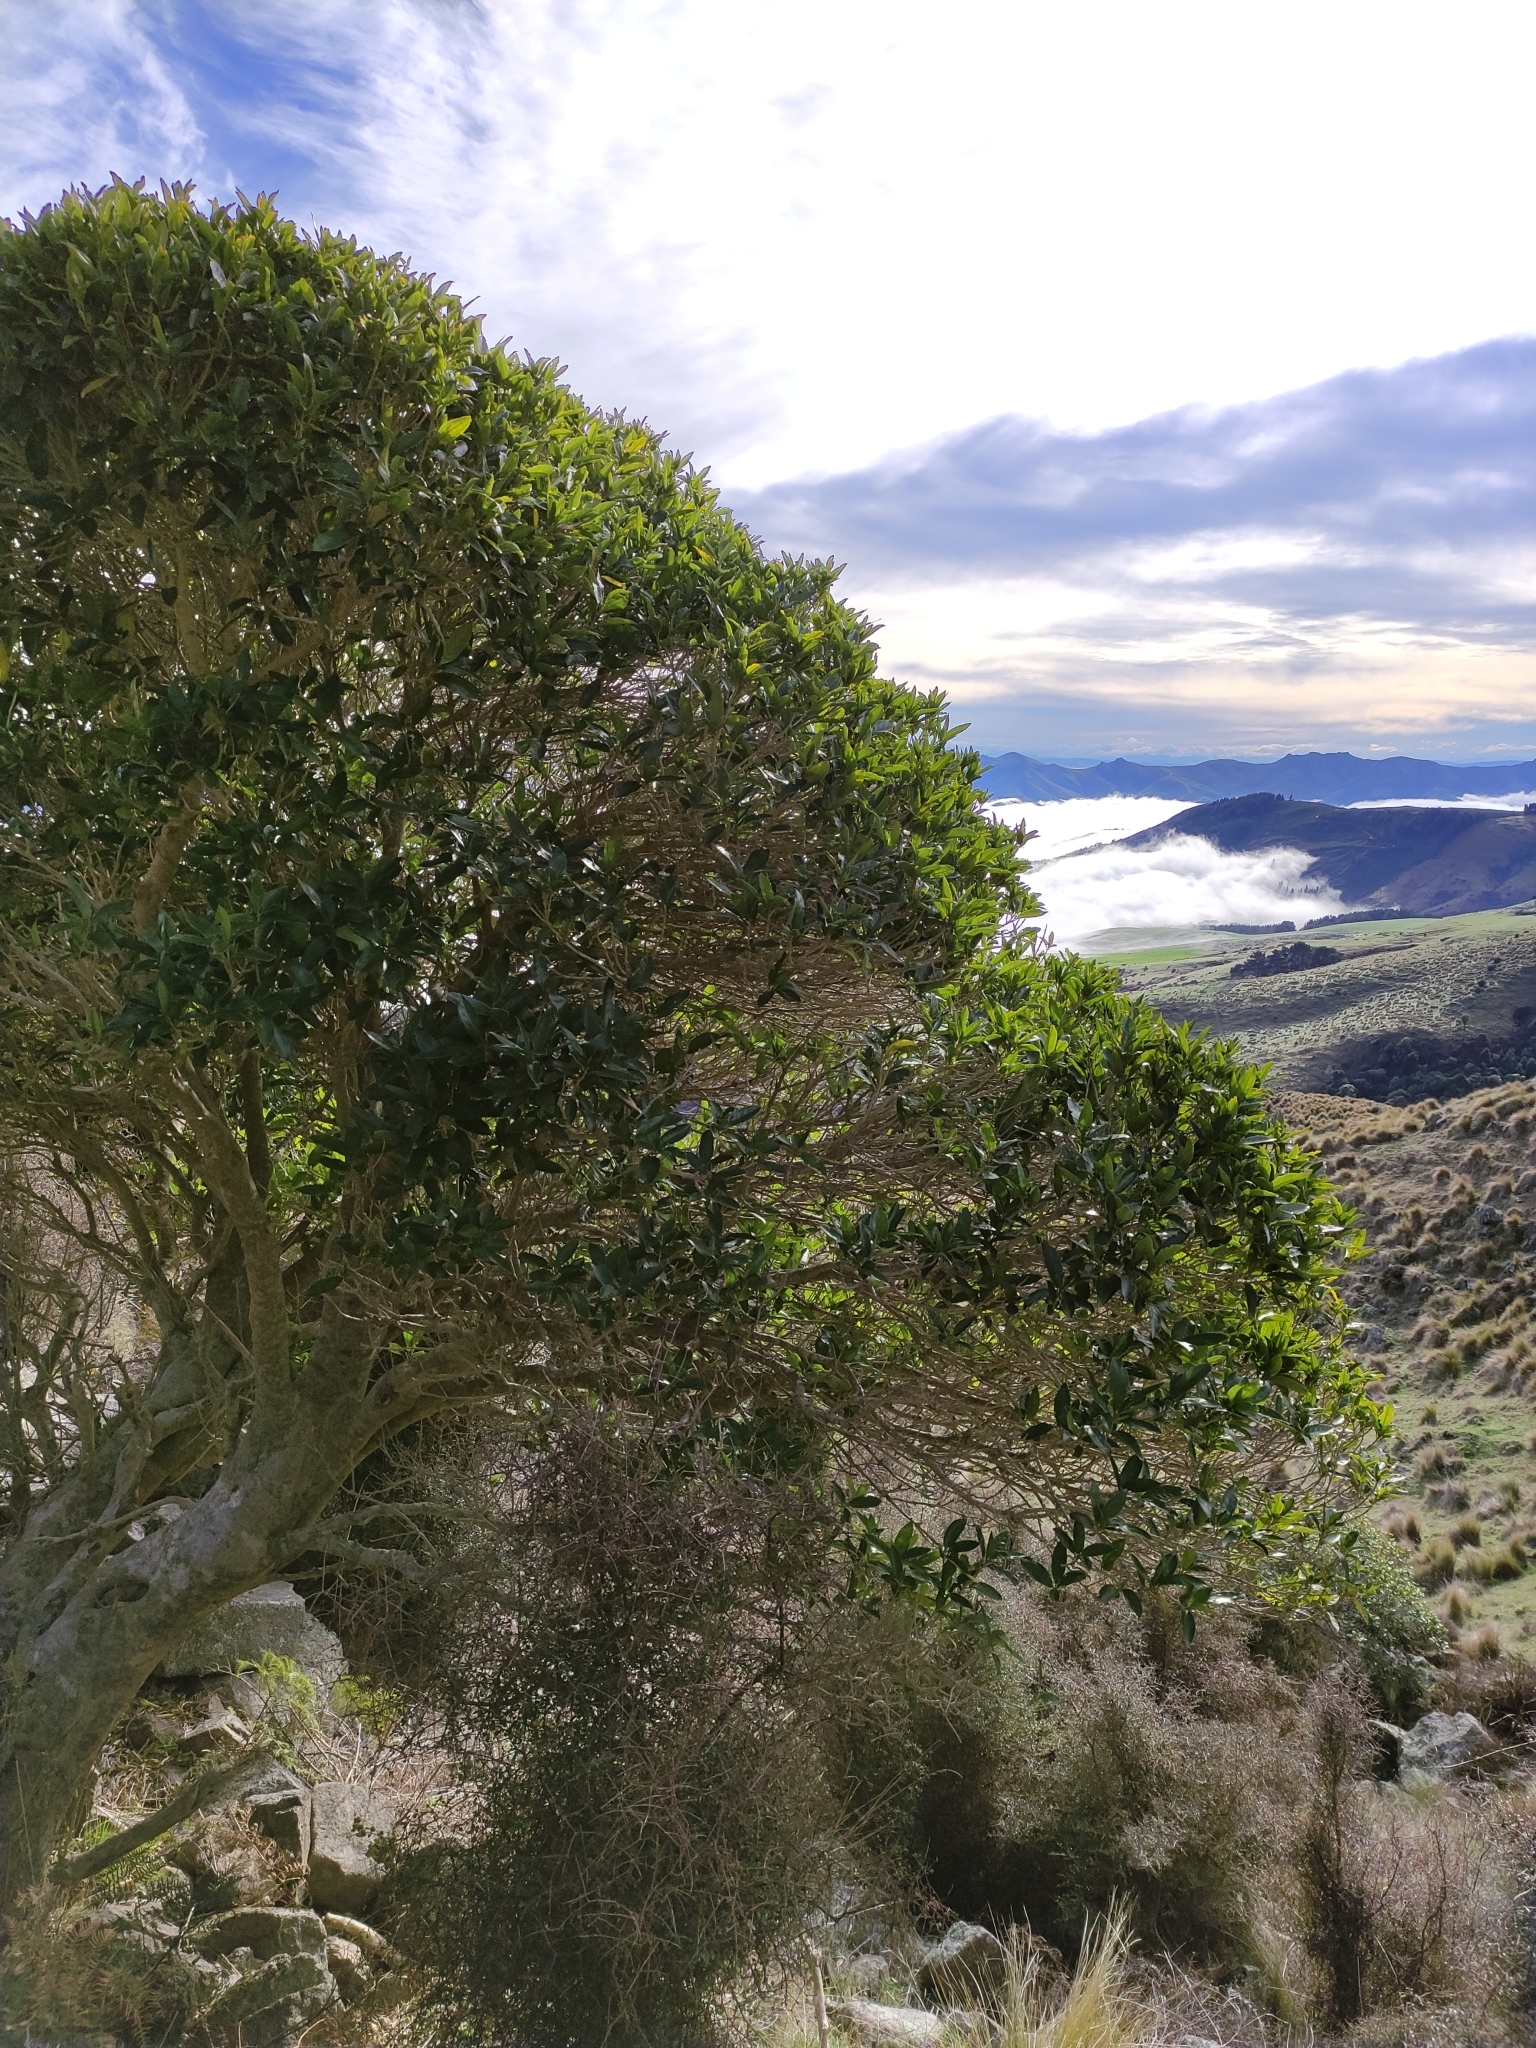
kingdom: Plantae
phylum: Tracheophyta
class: Magnoliopsida
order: Malpighiales
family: Violaceae
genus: Melicytus
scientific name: Melicytus ramiflorus
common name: Mahoe
